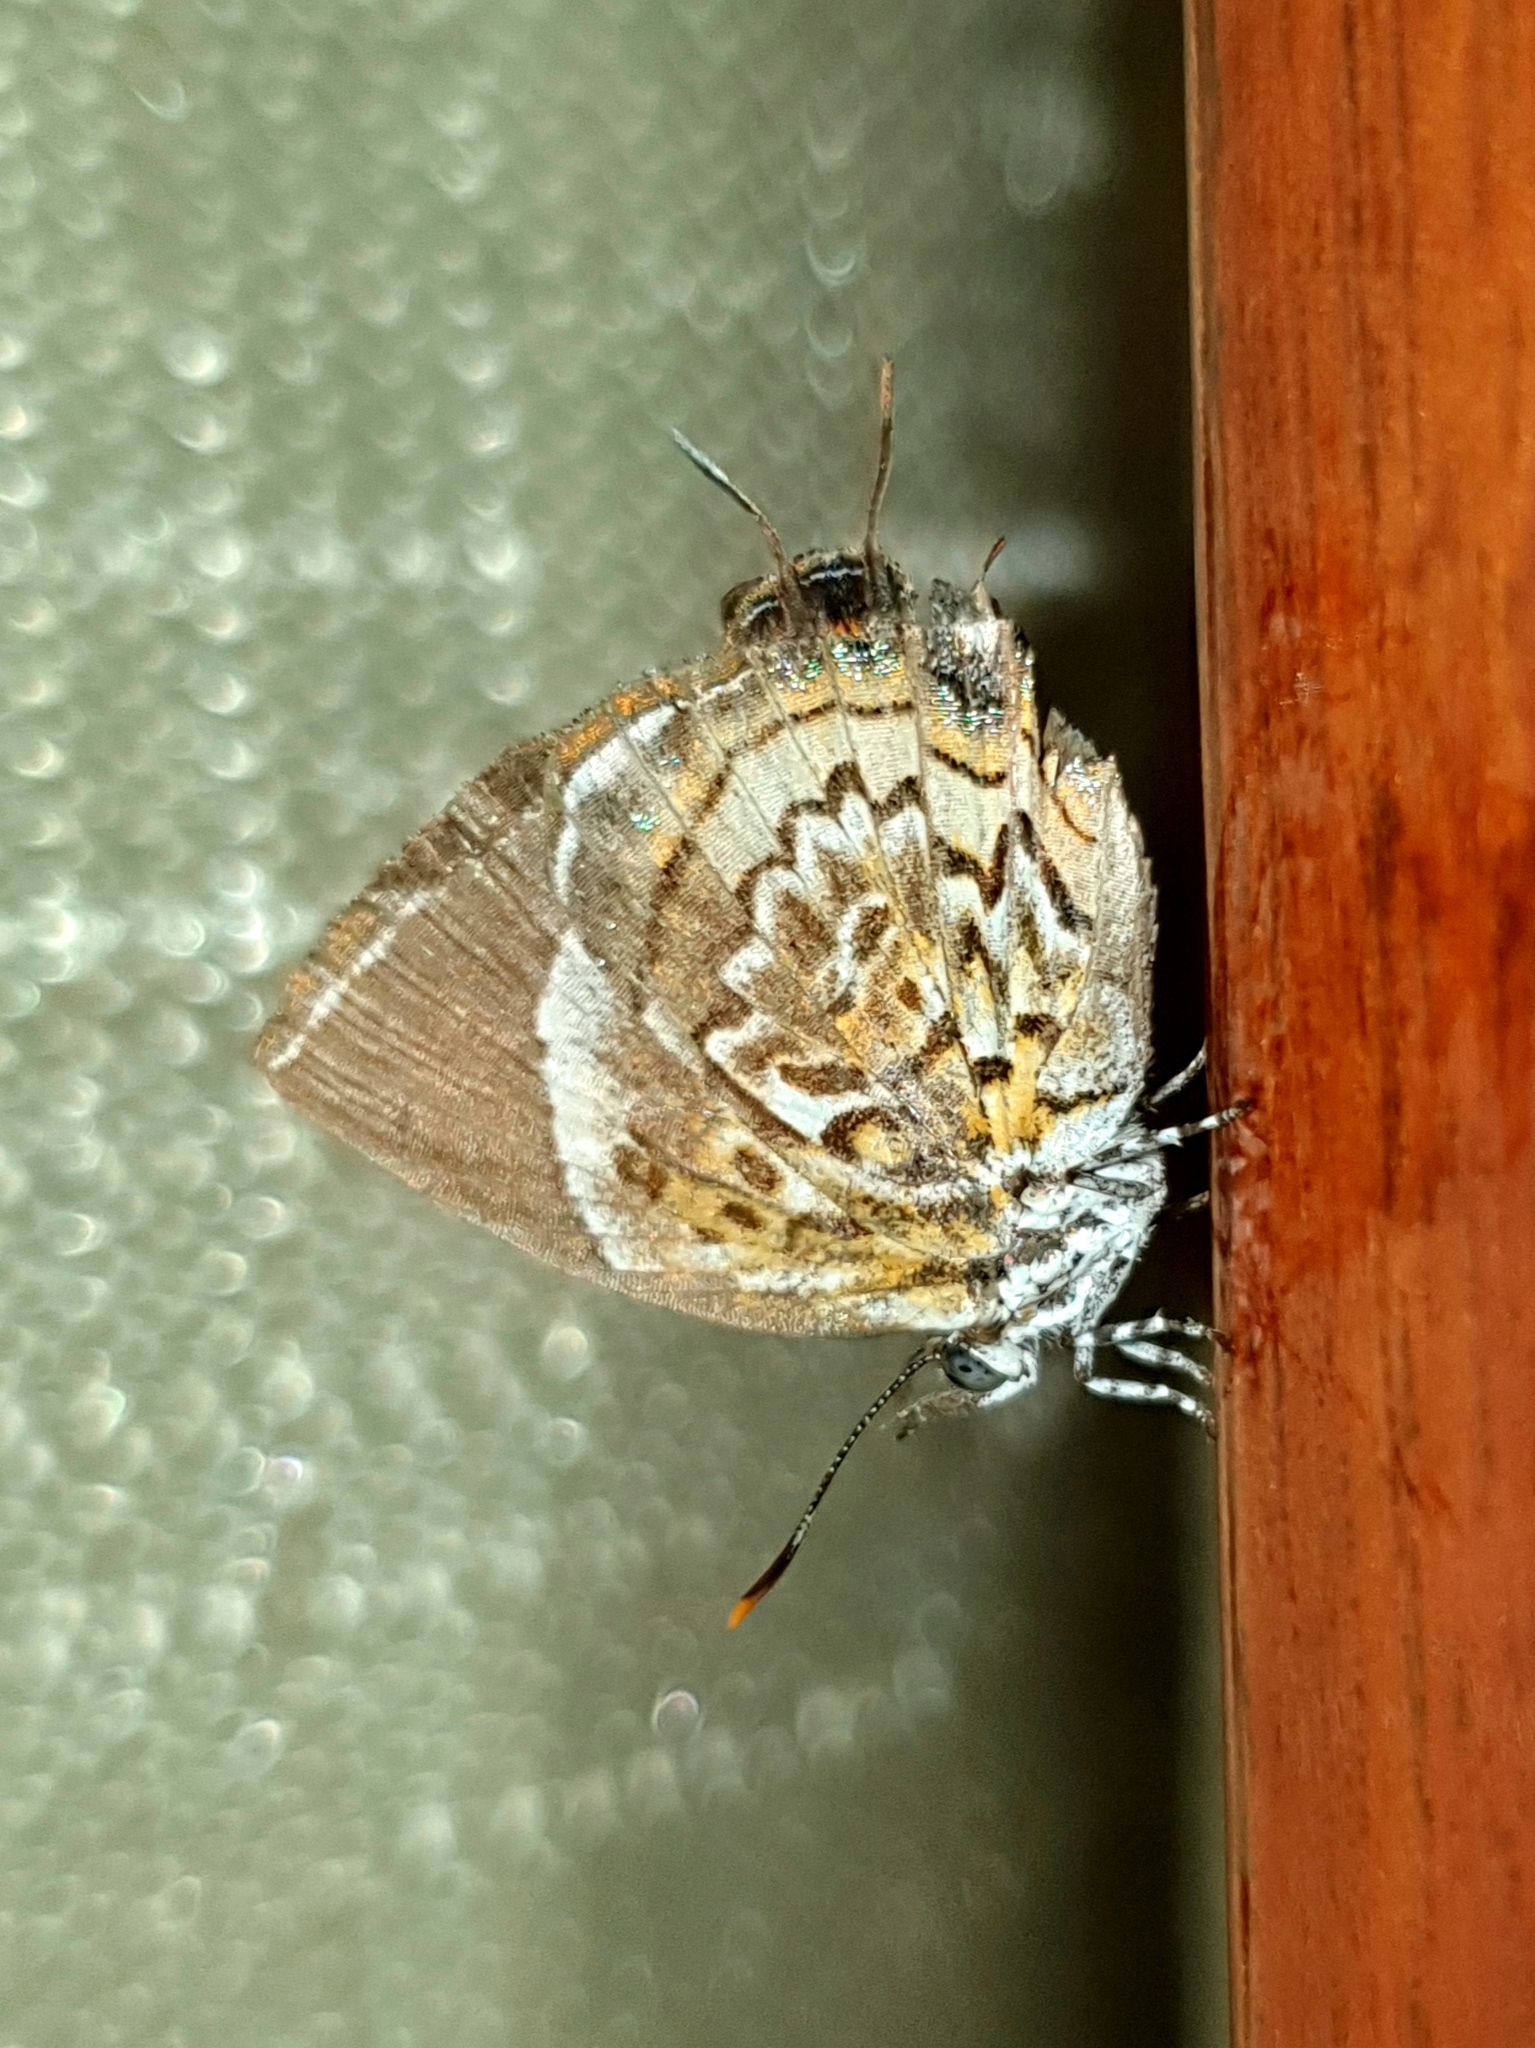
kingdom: Animalia
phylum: Arthropoda
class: Insecta
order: Lepidoptera
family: Lycaenidae
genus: Rathinda
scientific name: Rathinda amor
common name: Monkey puzzle
